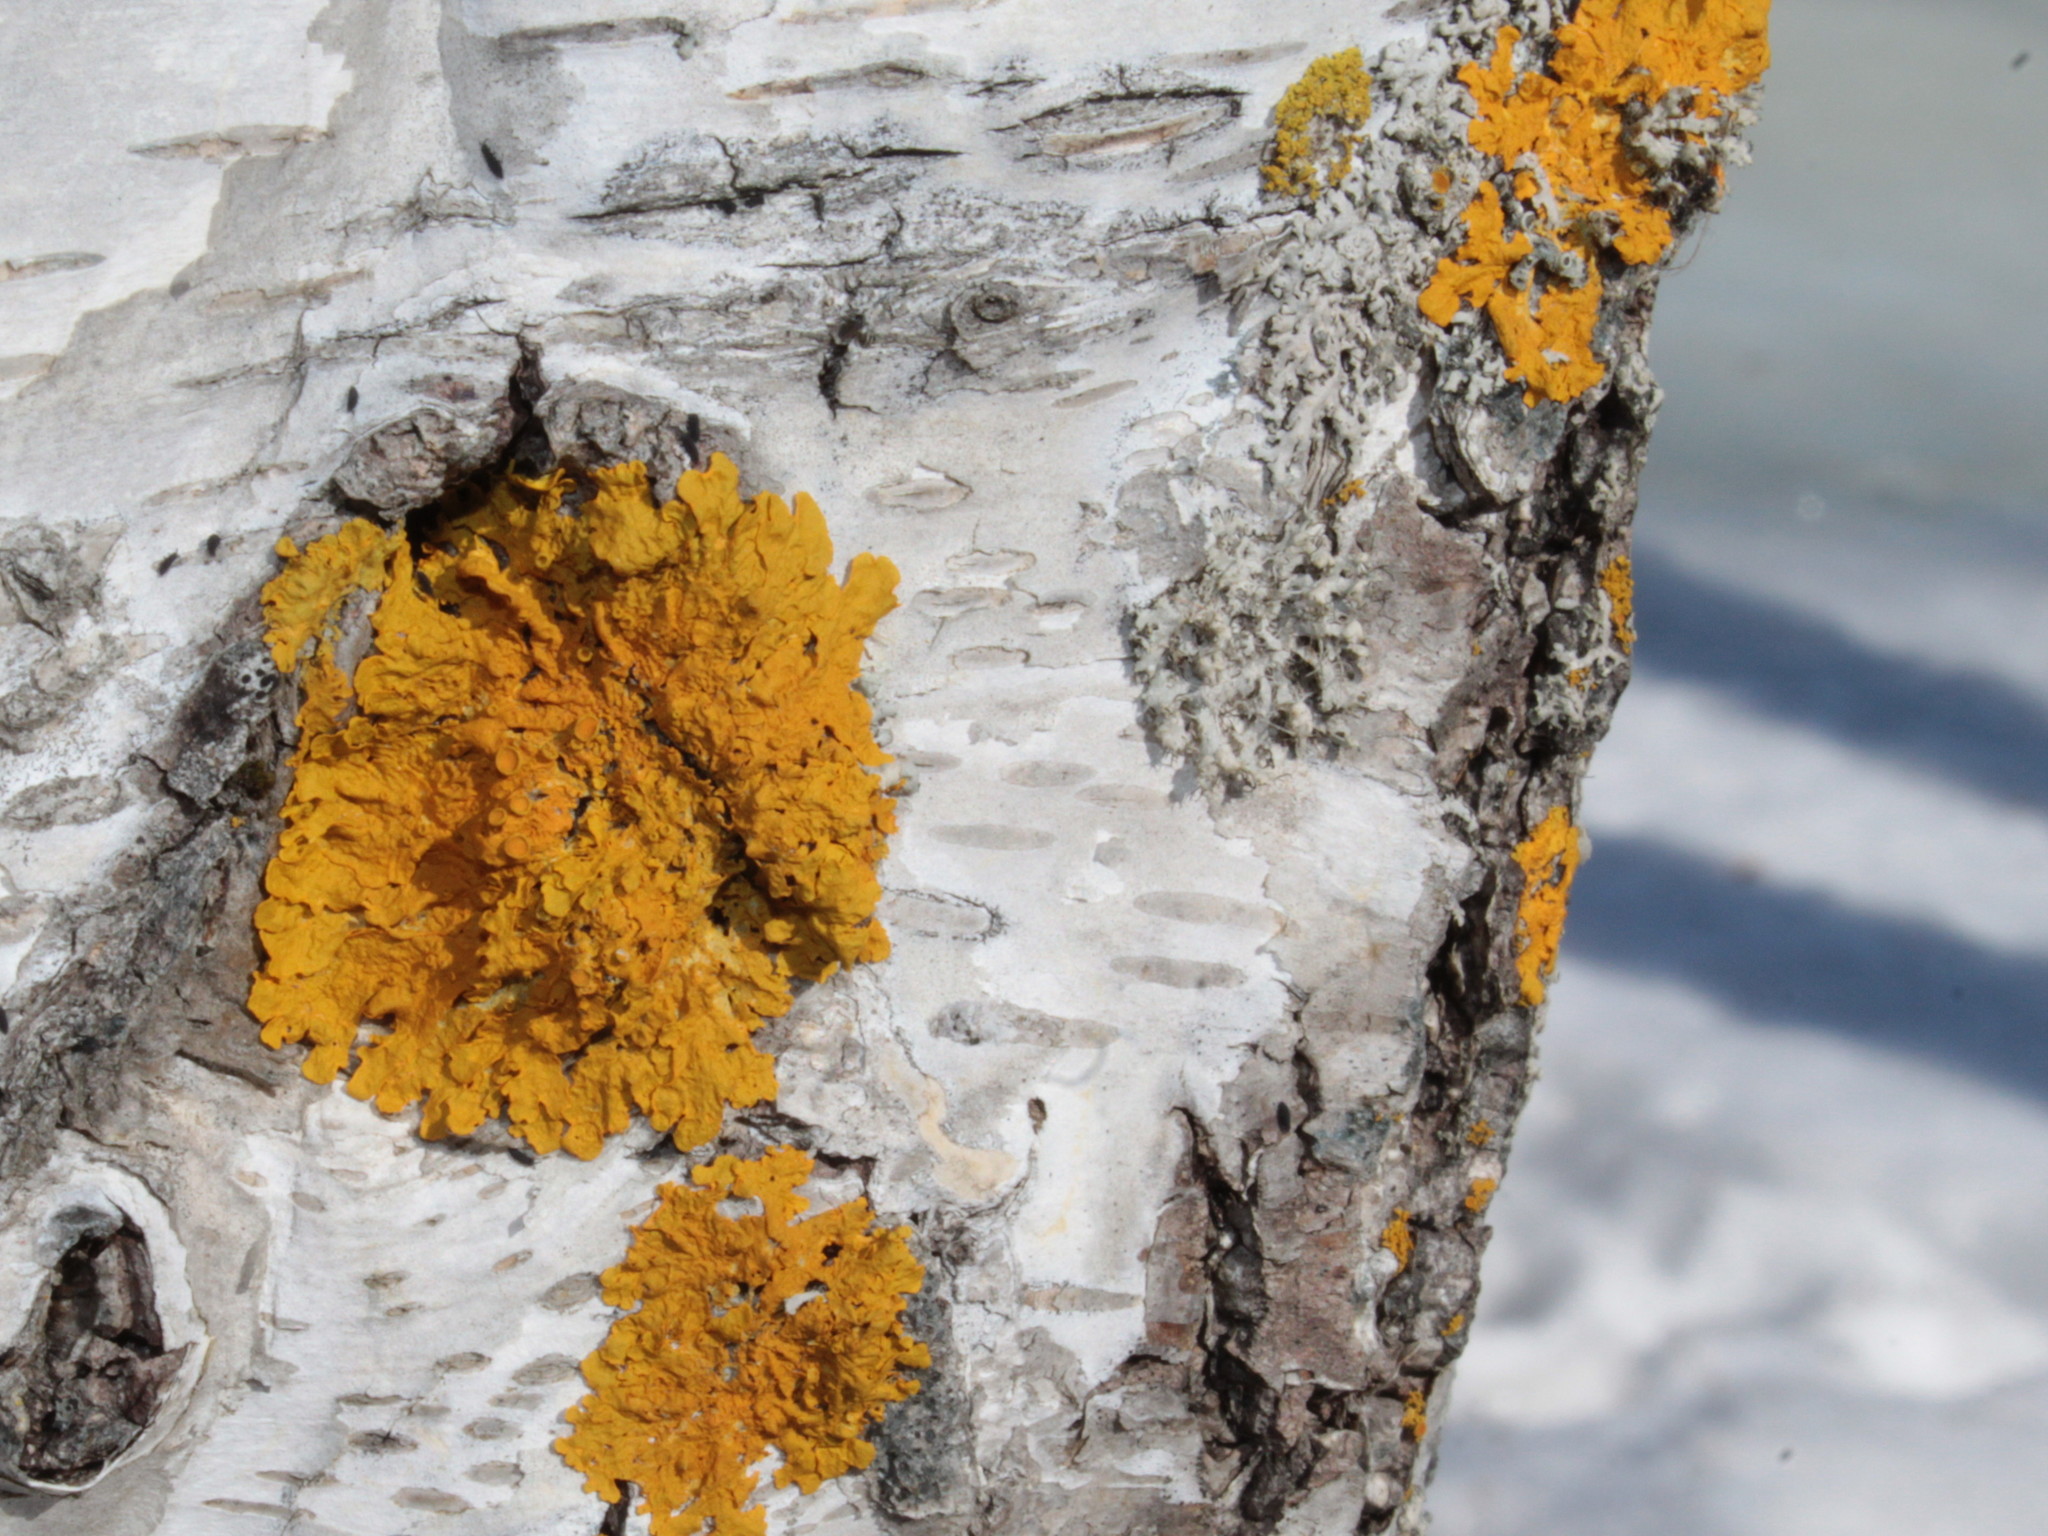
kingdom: Fungi
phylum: Ascomycota
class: Lecanoromycetes
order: Teloschistales
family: Teloschistaceae
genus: Xanthoria
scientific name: Xanthoria parietina
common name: Common orange lichen
